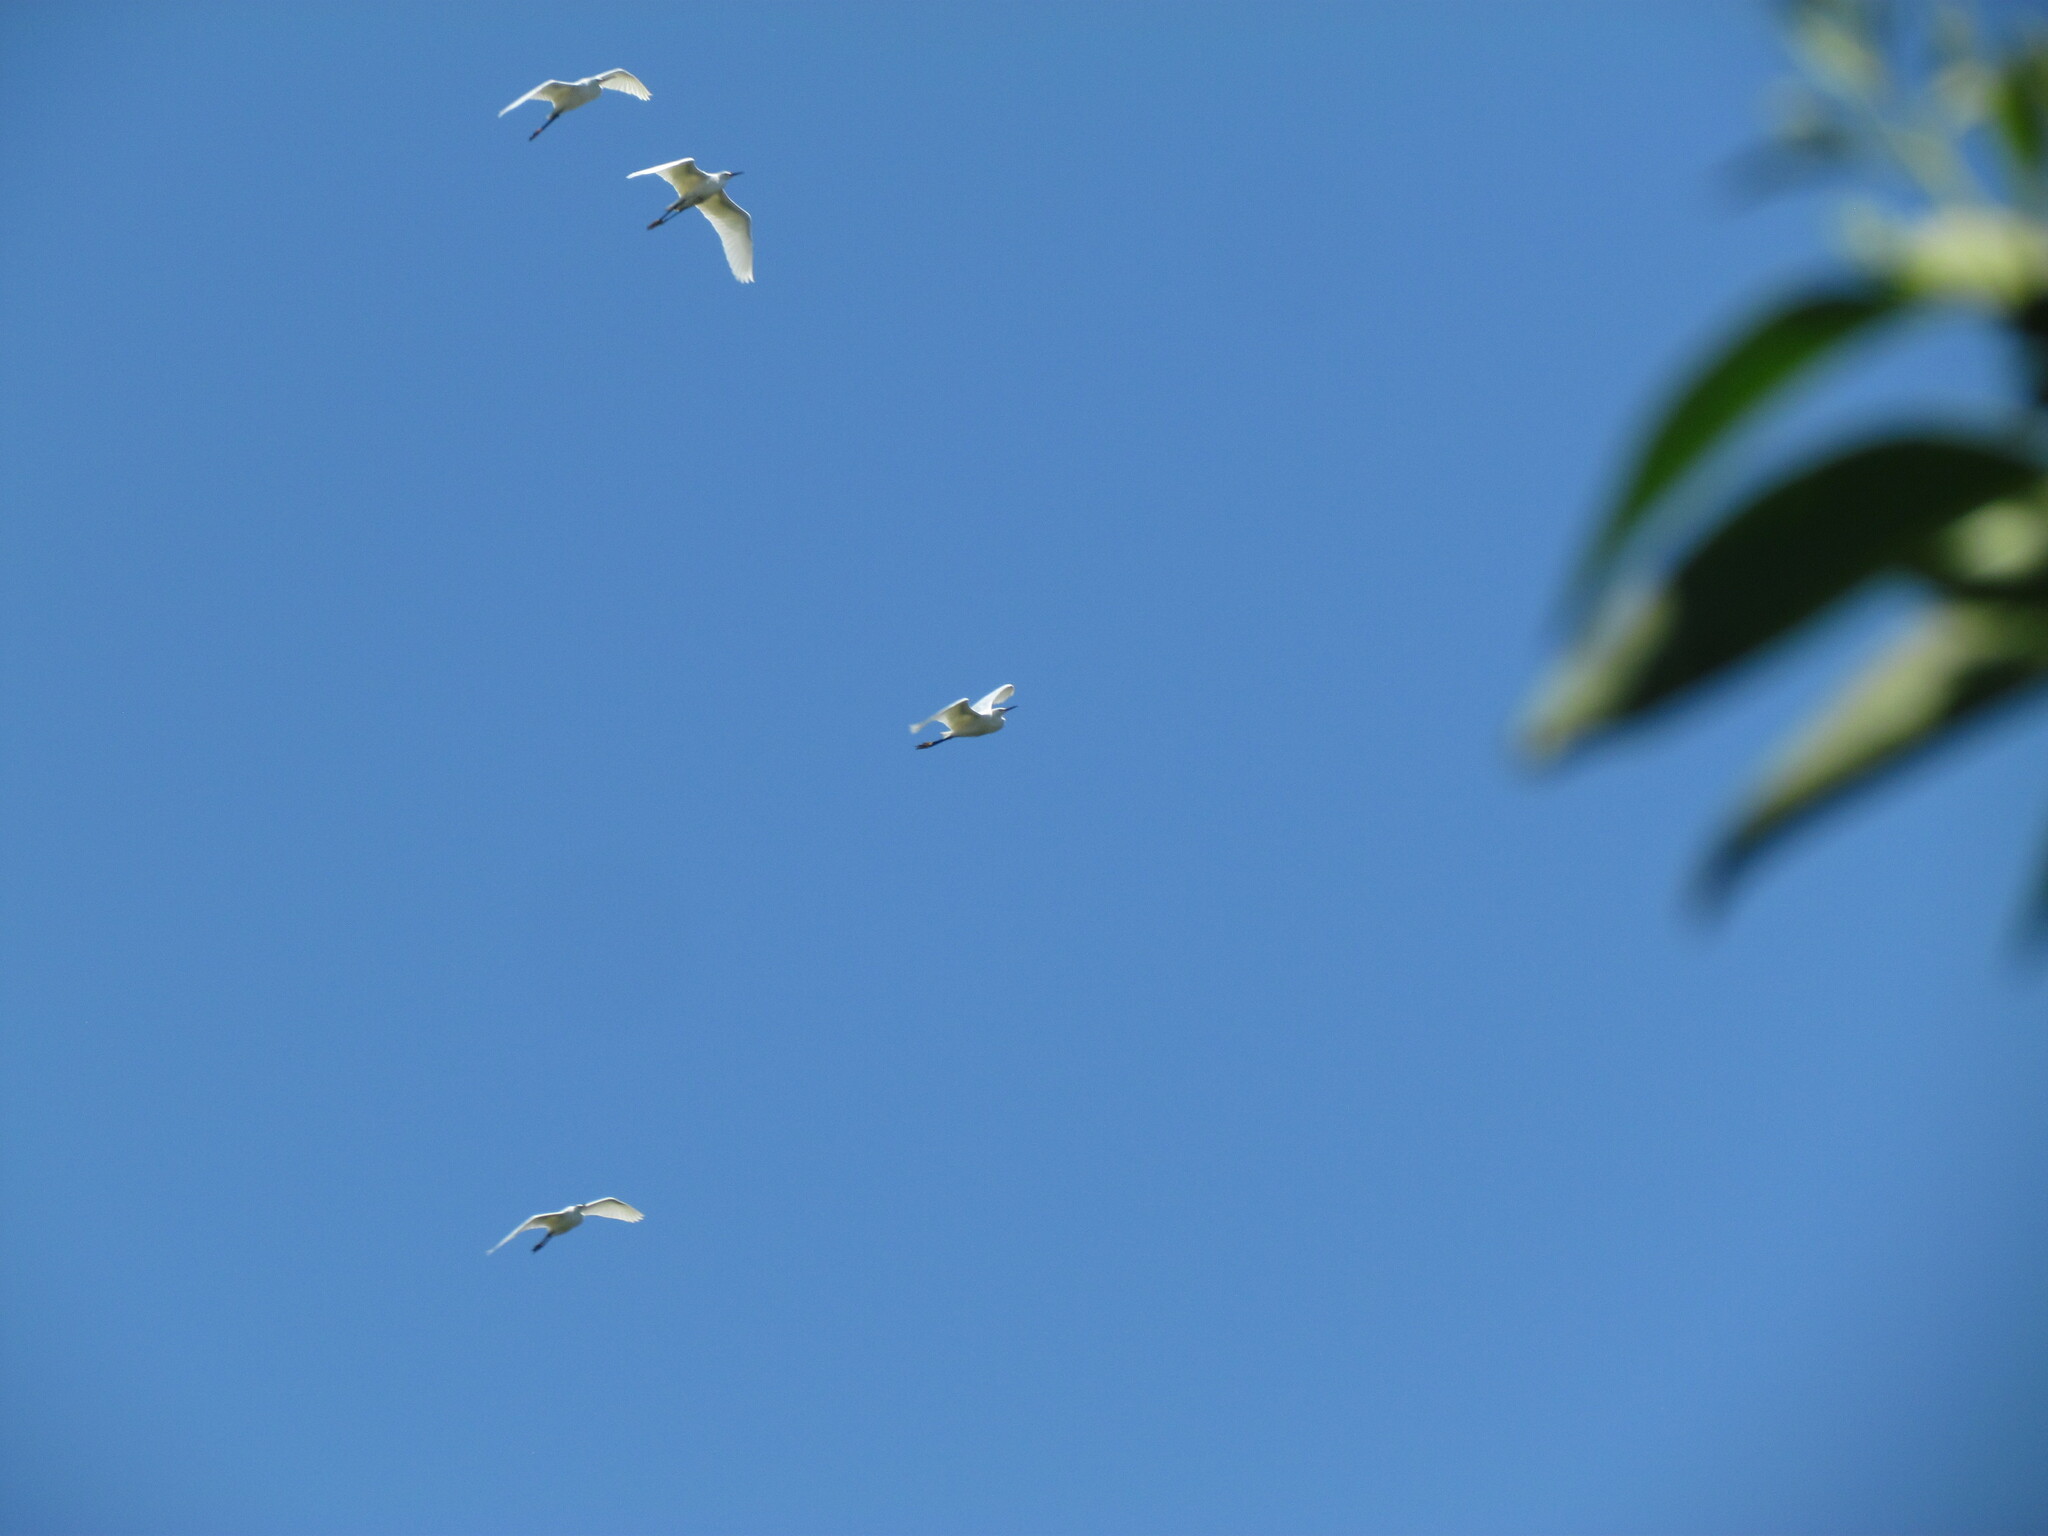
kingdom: Animalia
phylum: Chordata
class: Aves
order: Pelecaniformes
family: Ardeidae
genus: Egretta
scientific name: Egretta thula
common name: Snowy egret
